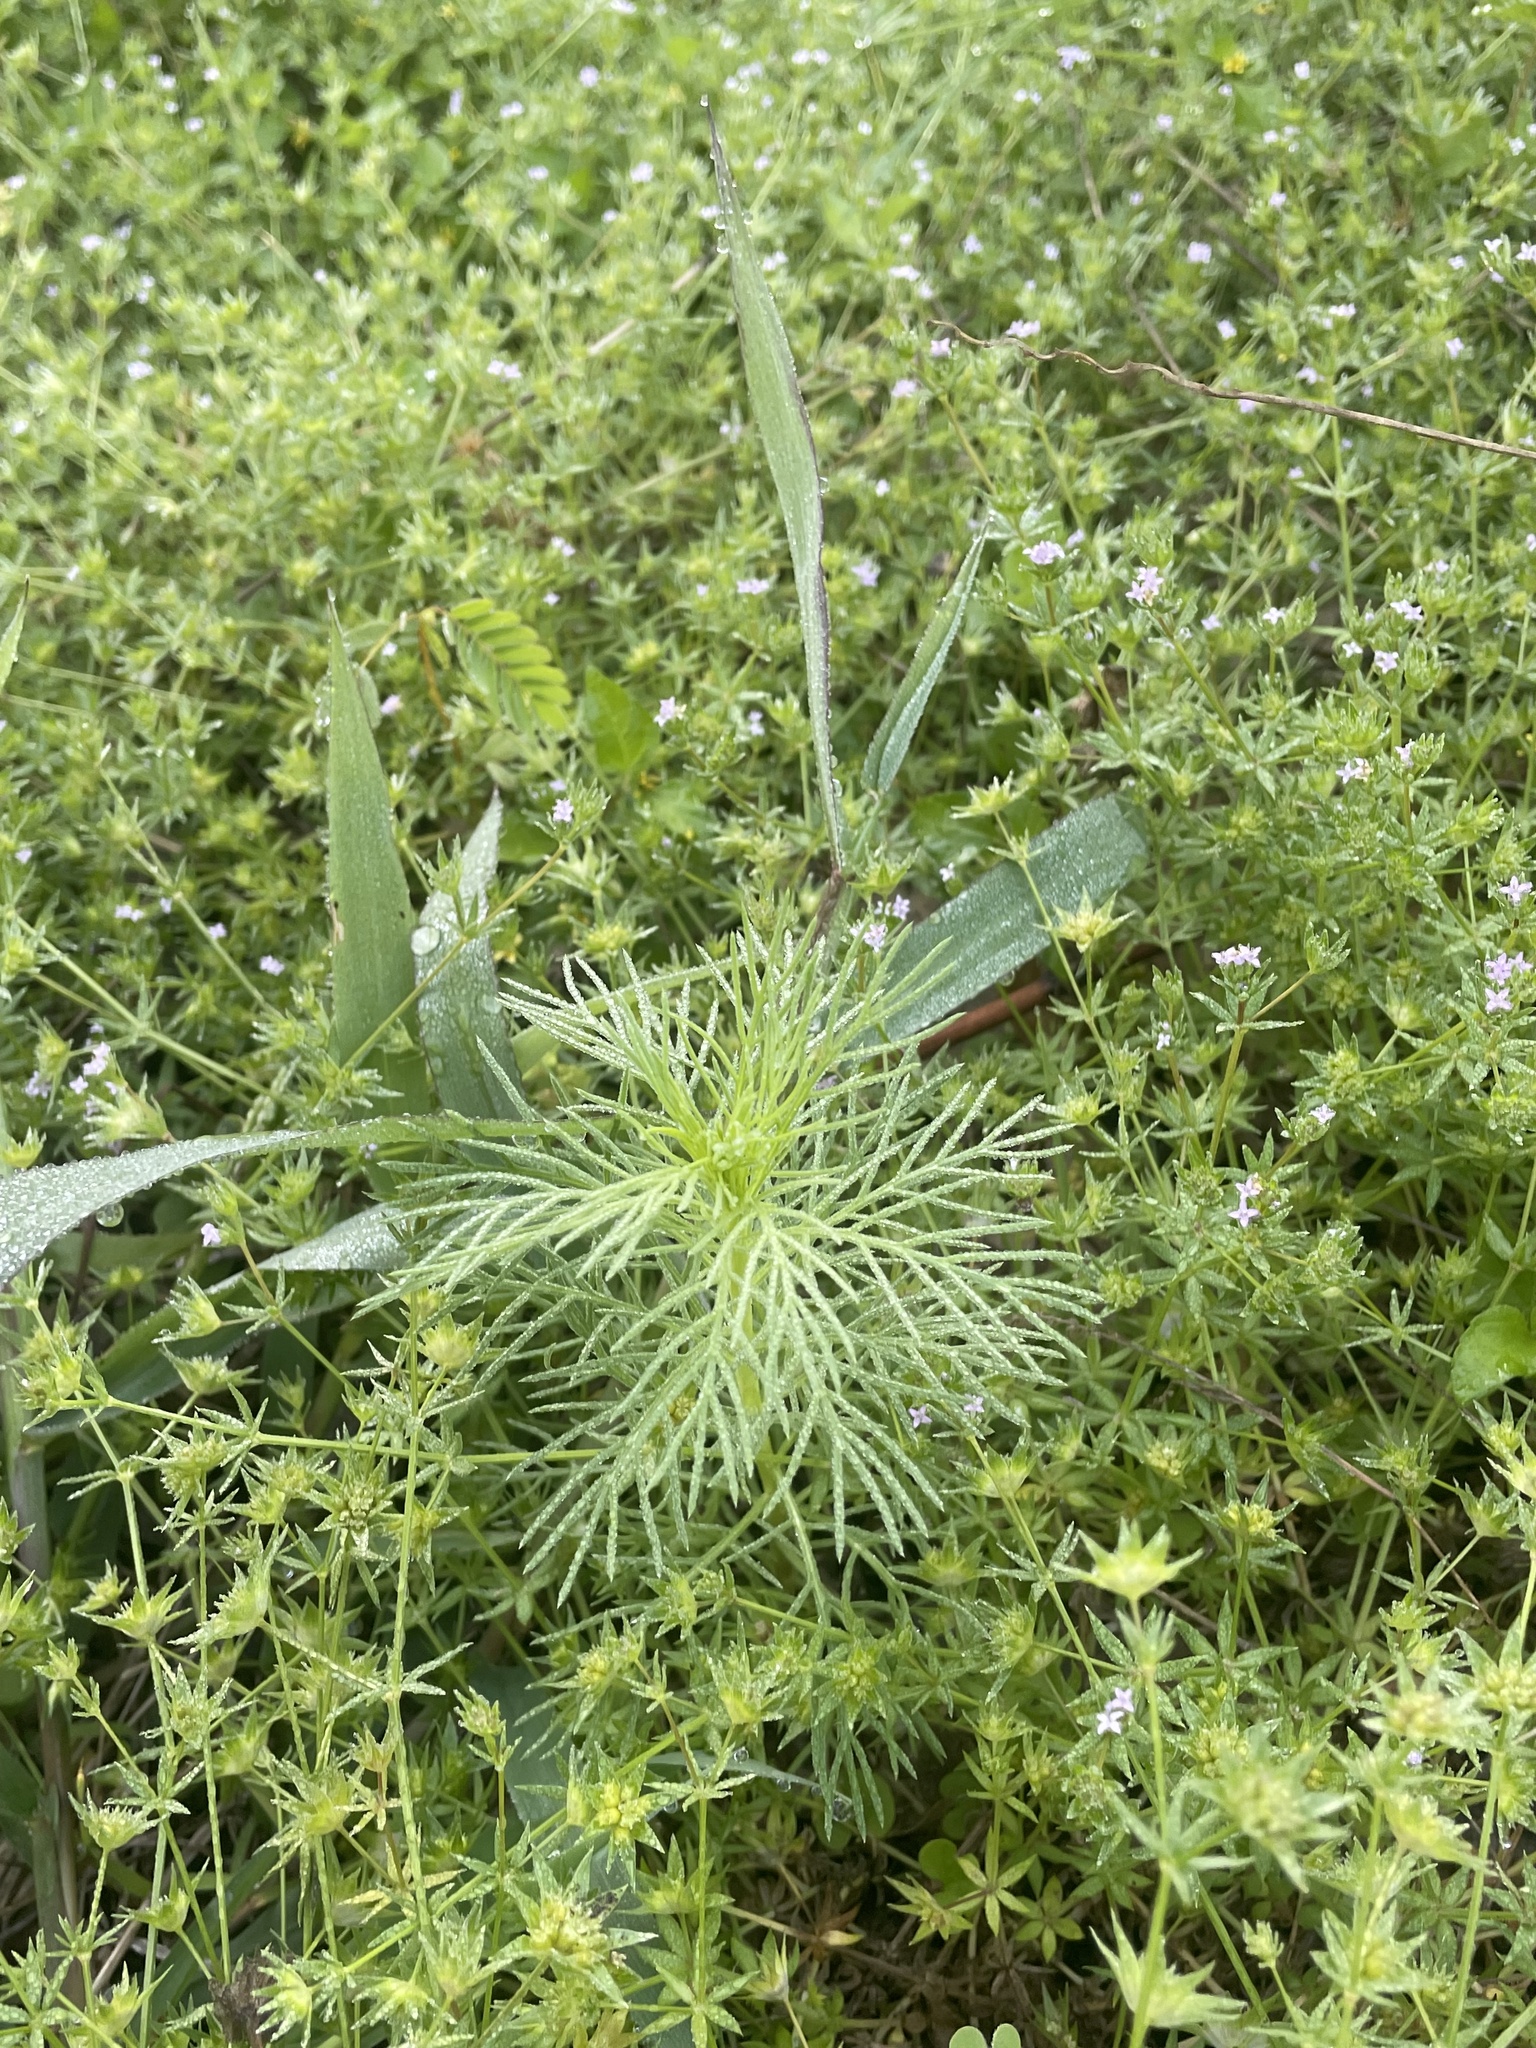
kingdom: Plantae
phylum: Tracheophyta
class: Magnoliopsida
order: Ericales
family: Polemoniaceae
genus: Ipomopsis
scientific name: Ipomopsis rubra
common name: Skyrocket
